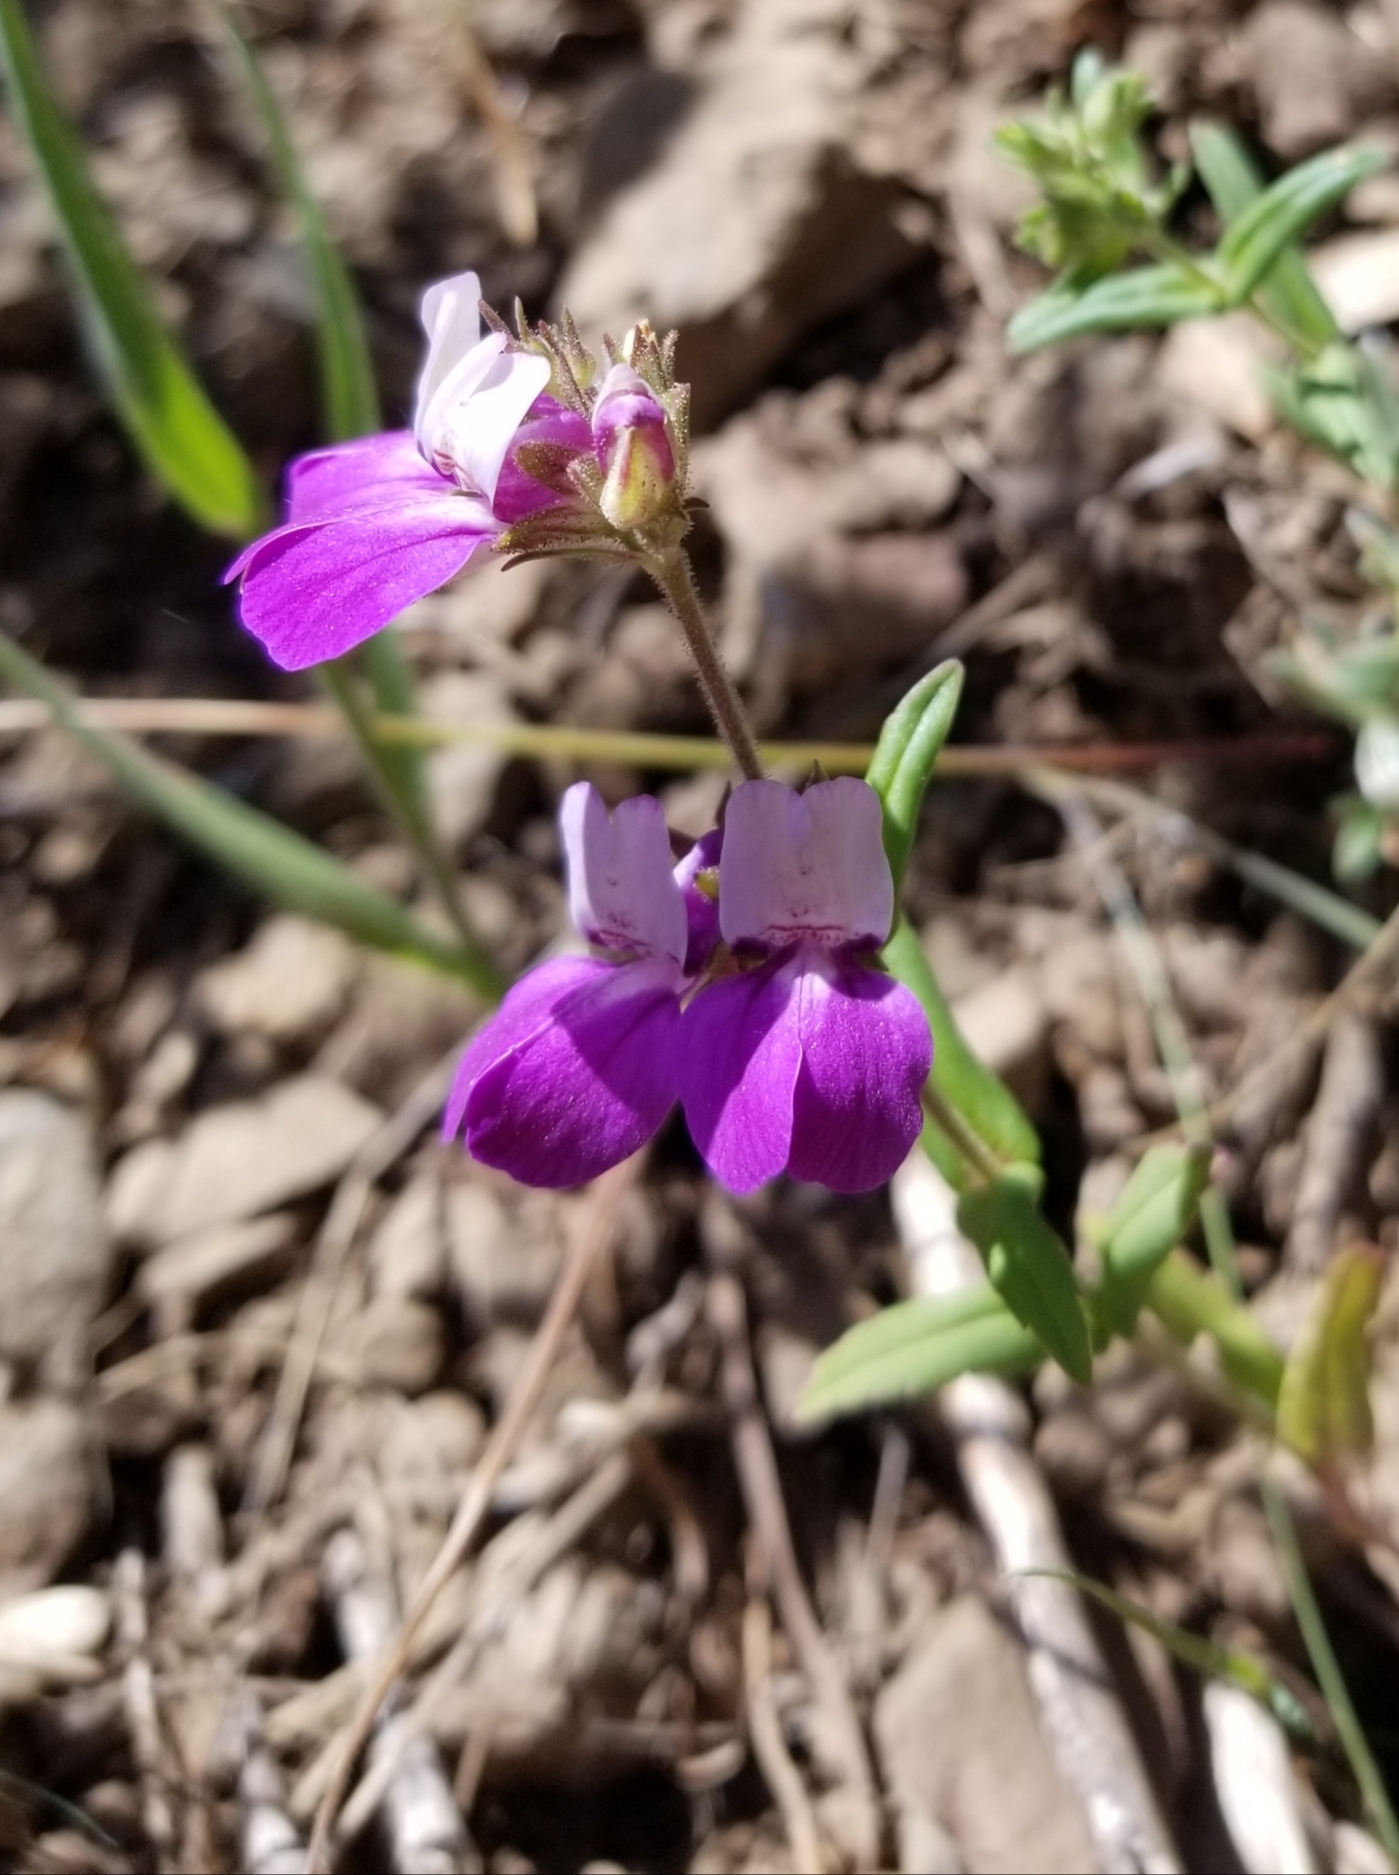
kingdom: Plantae
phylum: Tracheophyta
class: Magnoliopsida
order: Lamiales
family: Plantaginaceae
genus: Collinsia
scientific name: Collinsia heterophylla
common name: Chinese-houses
